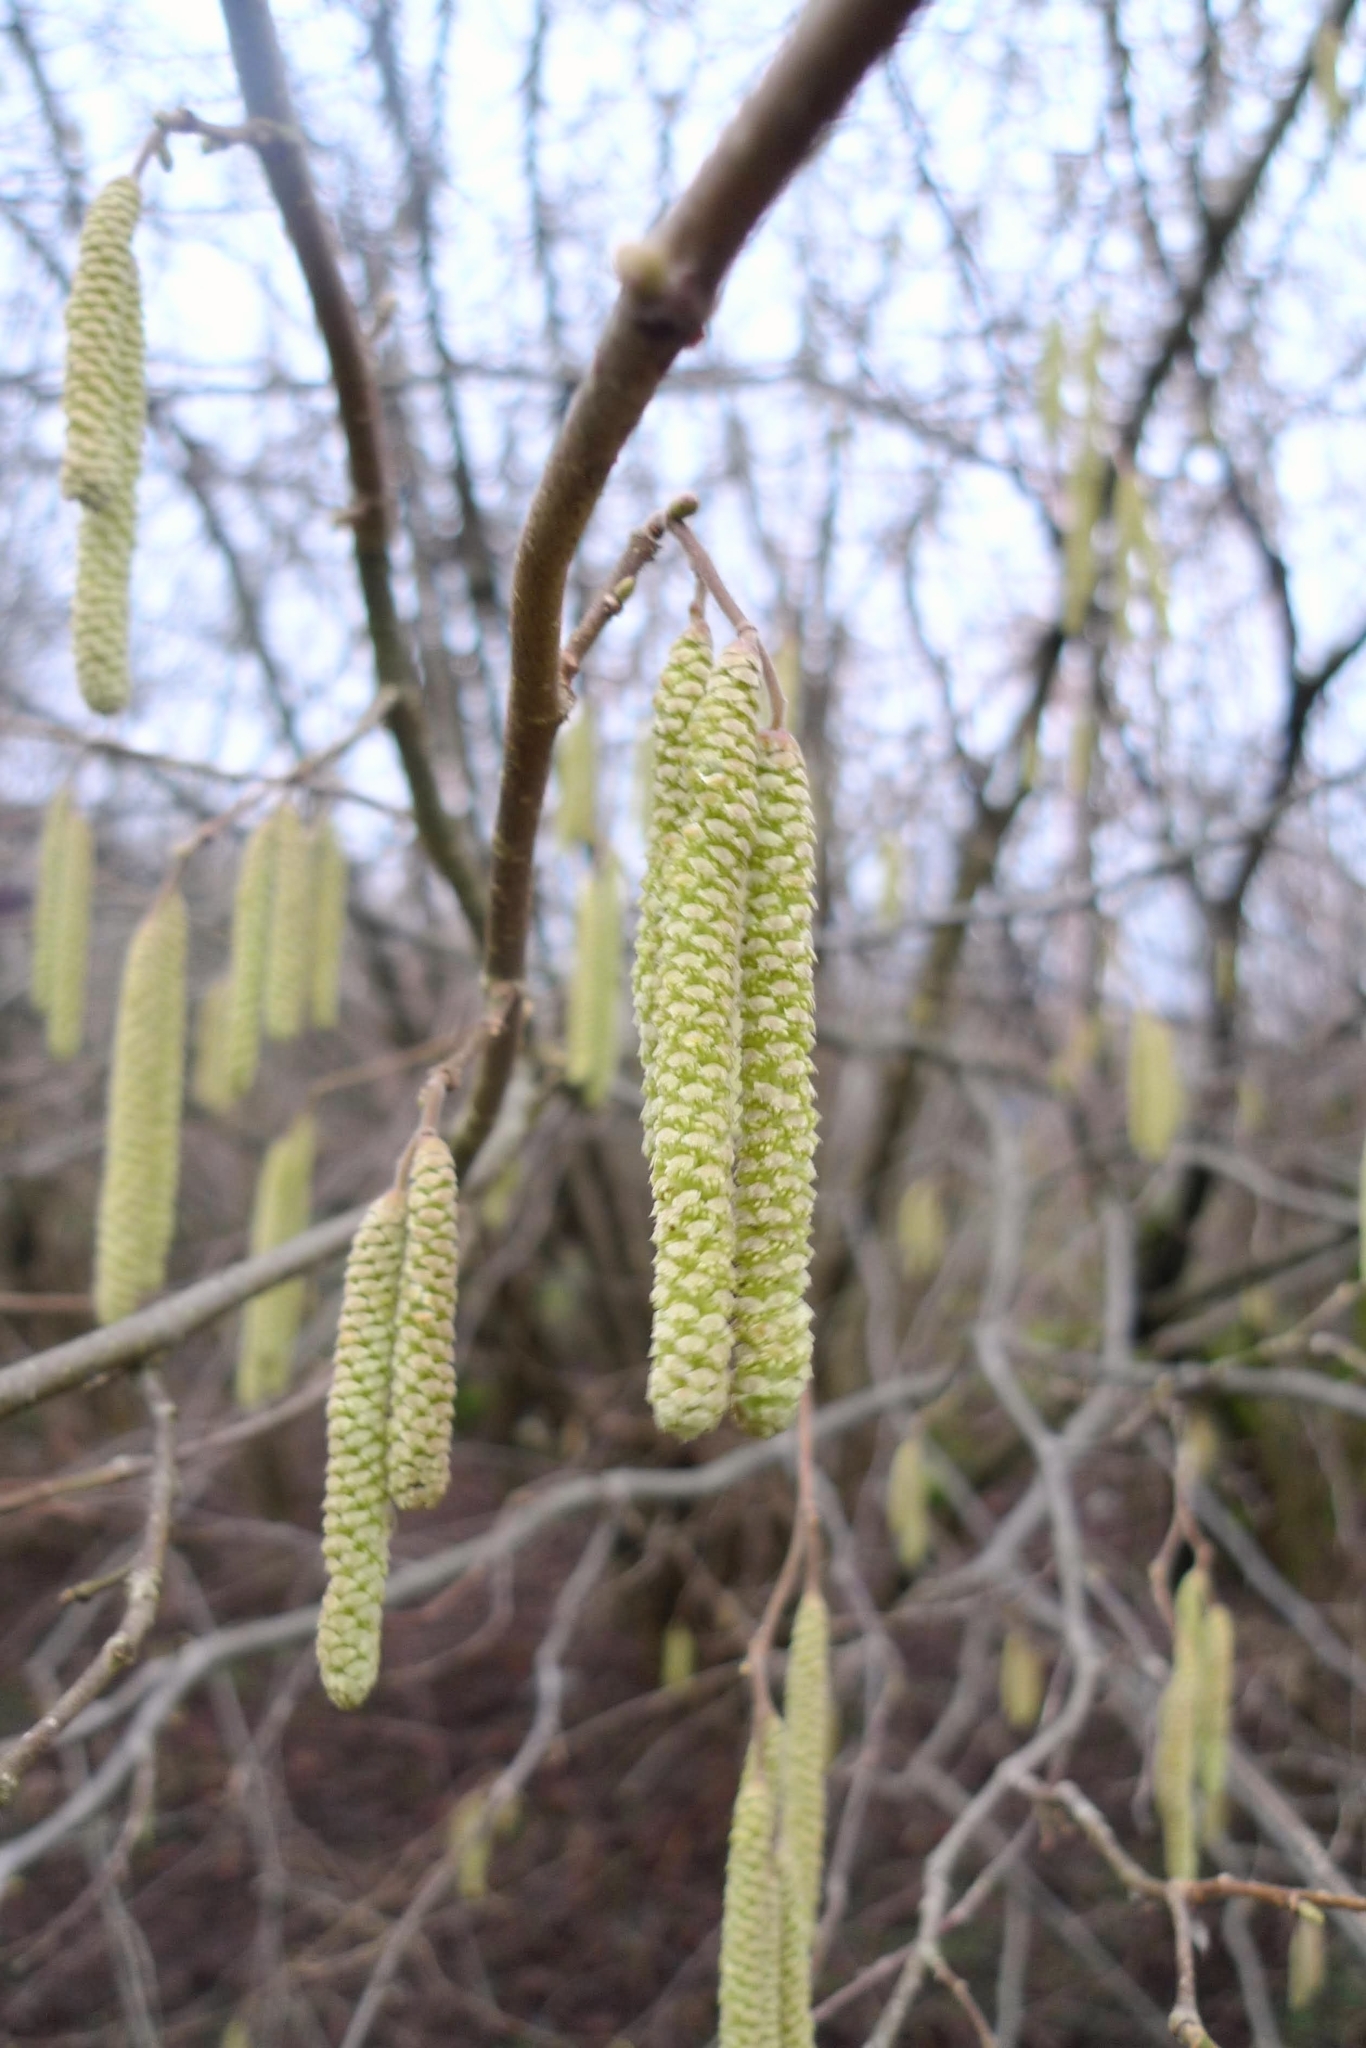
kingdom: Plantae
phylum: Tracheophyta
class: Magnoliopsida
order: Fagales
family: Betulaceae
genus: Corylus
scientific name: Corylus avellana
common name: European hazel
